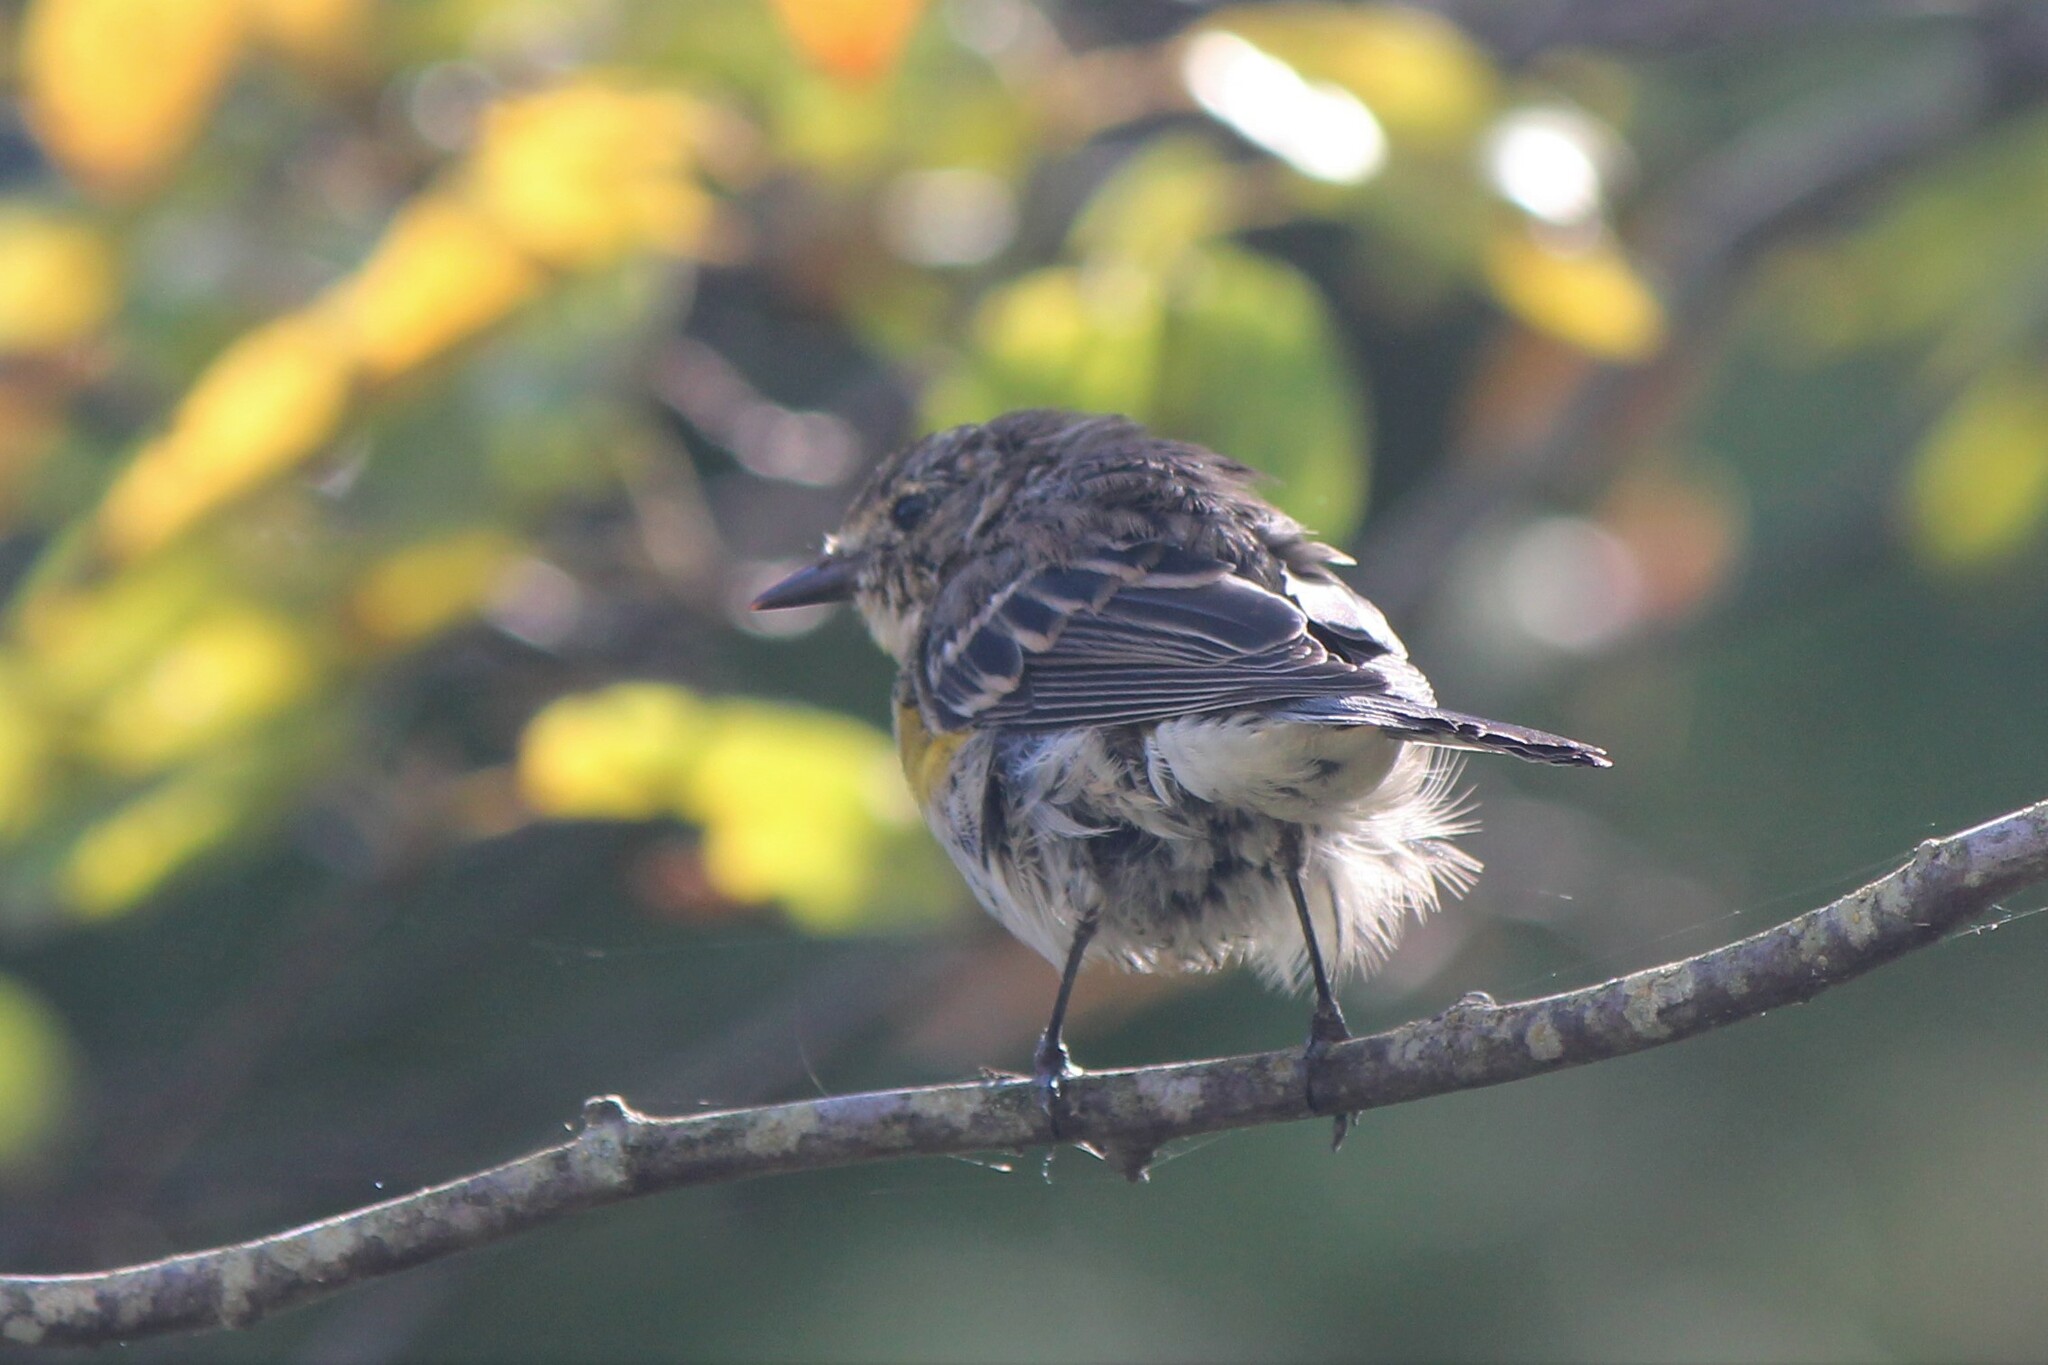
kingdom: Animalia
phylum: Chordata
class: Aves
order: Passeriformes
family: Parulidae
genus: Setophaga
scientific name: Setophaga coronata
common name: Myrtle warbler
